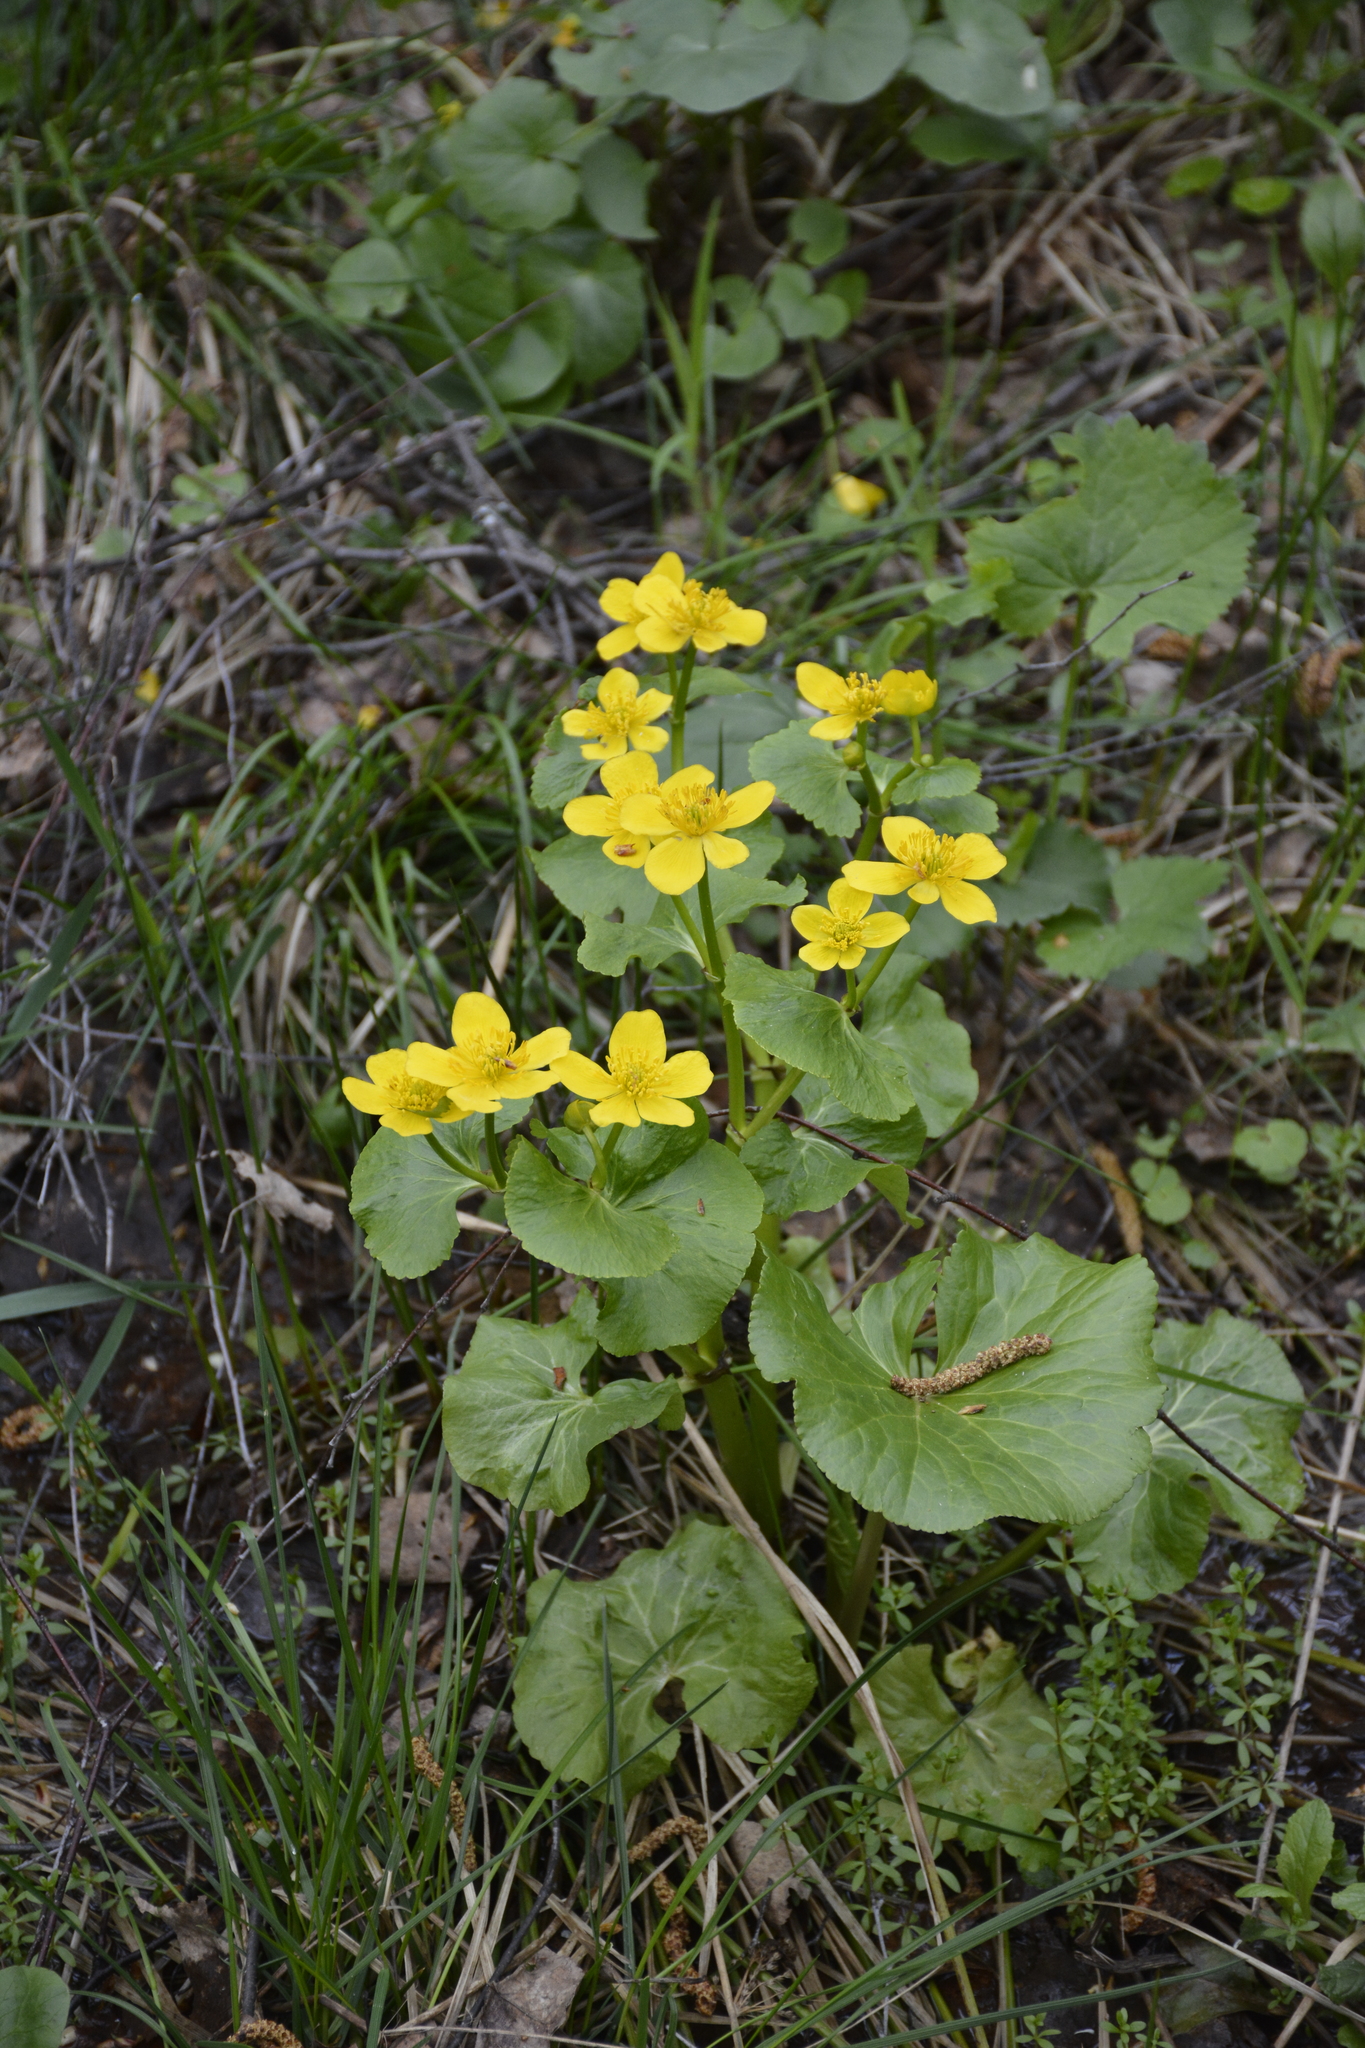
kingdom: Plantae
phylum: Tracheophyta
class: Magnoliopsida
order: Ranunculales
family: Ranunculaceae
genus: Caltha
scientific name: Caltha palustris
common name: Marsh marigold
